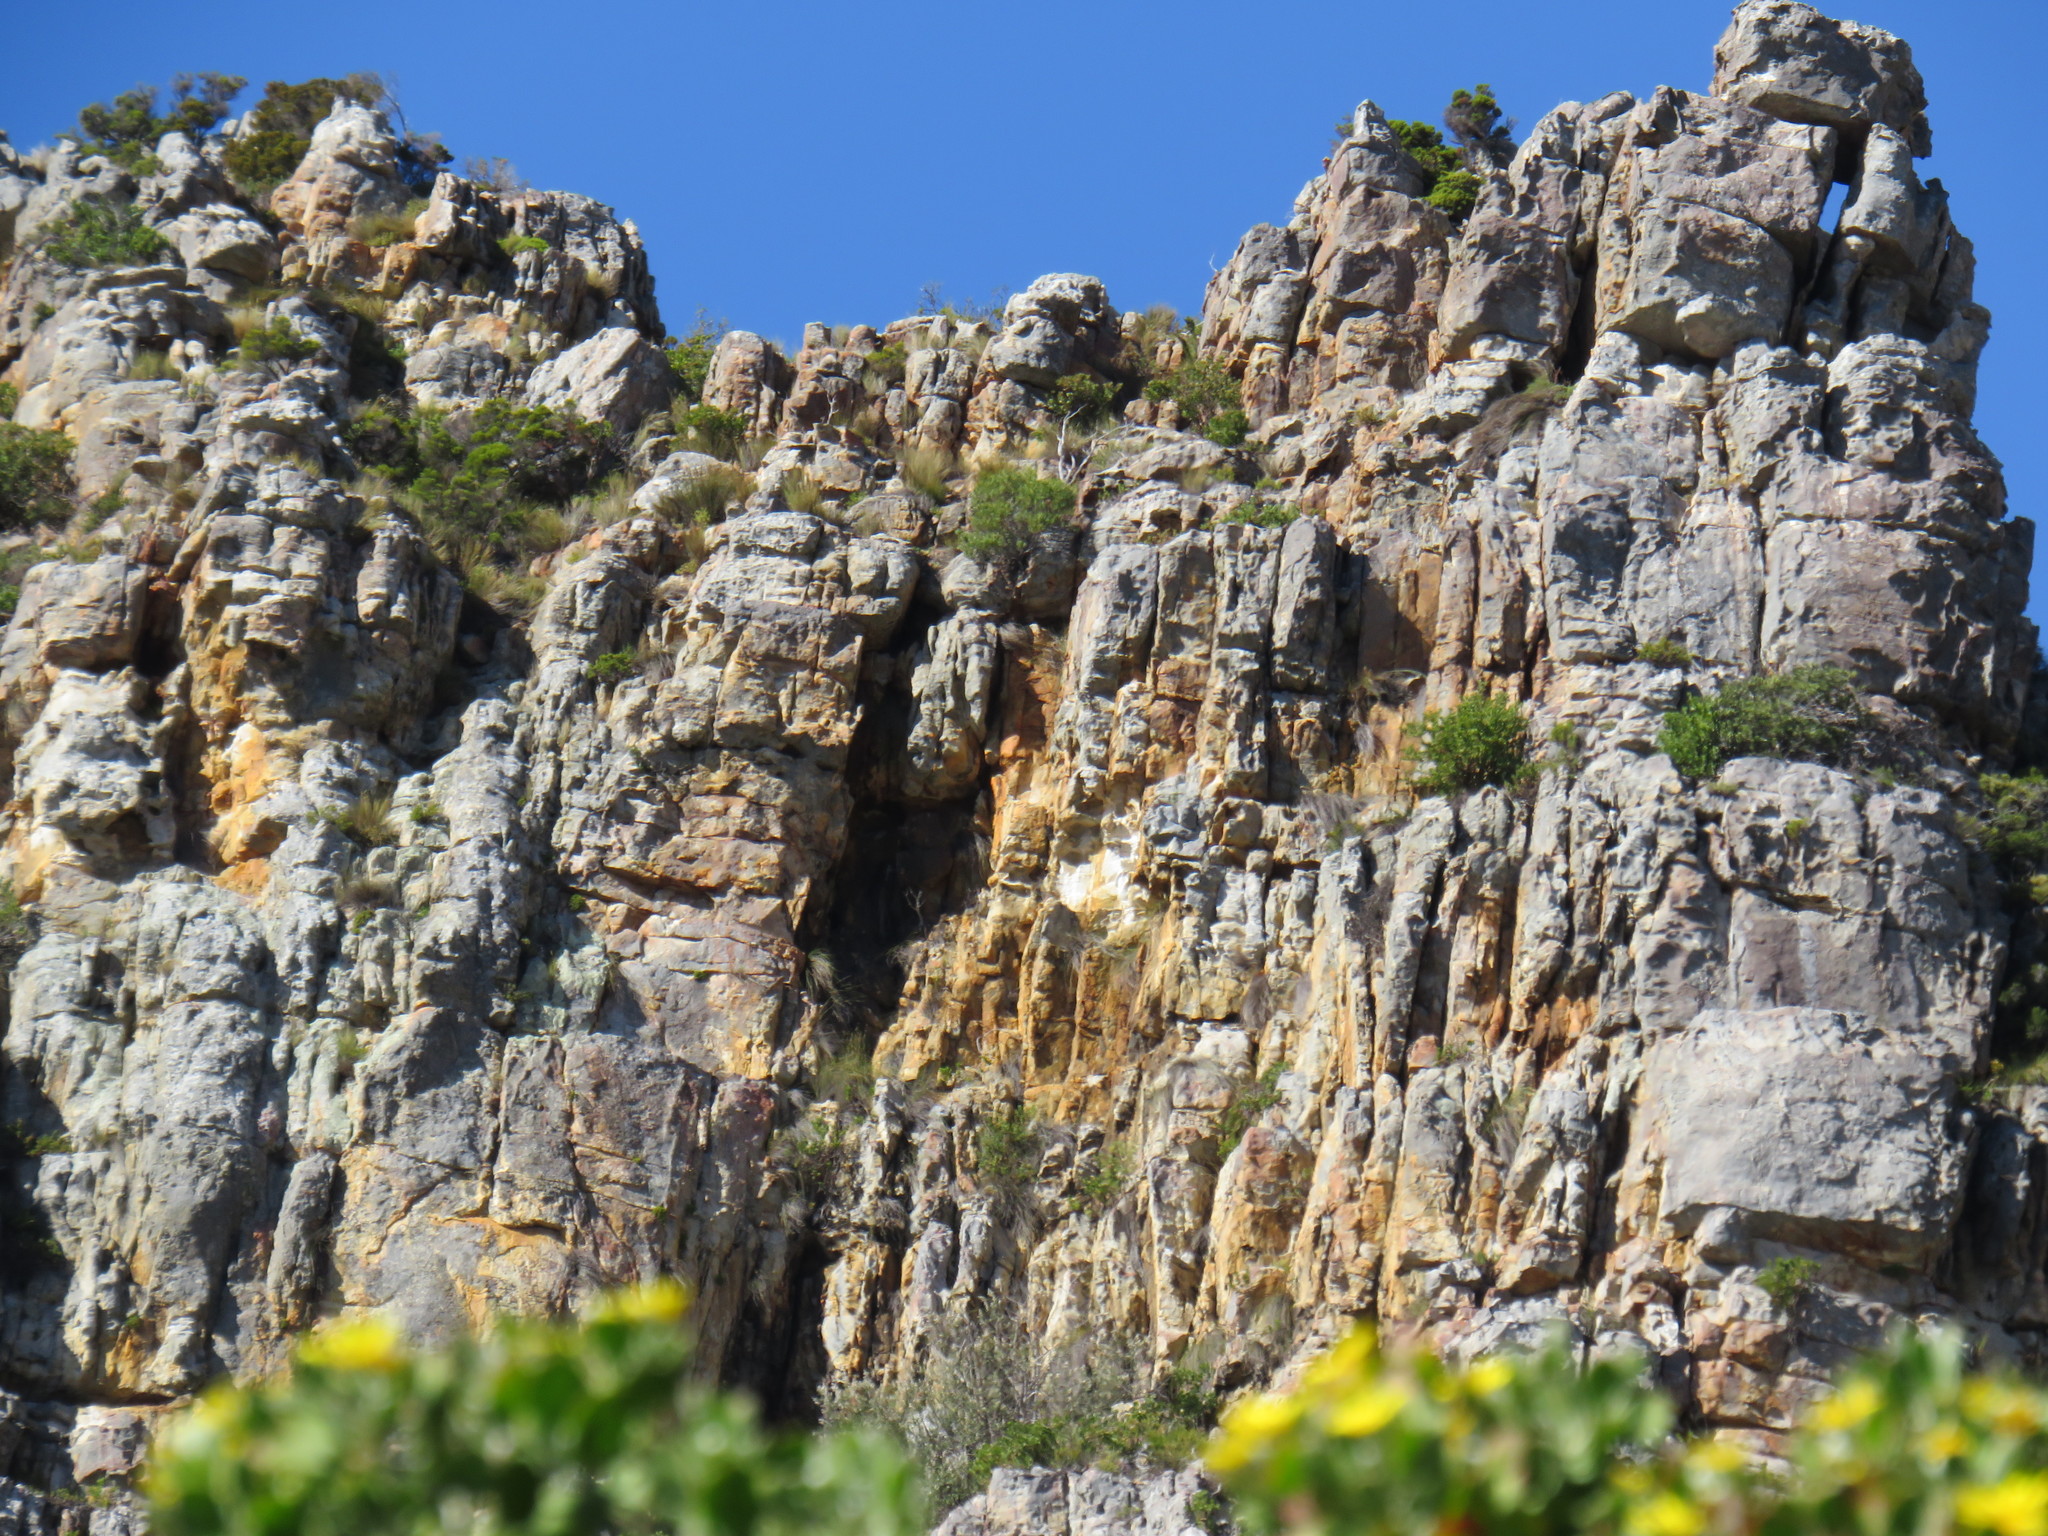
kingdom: Animalia
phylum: Chordata
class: Aves
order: Passeriformes
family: Corvidae
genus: Corvus
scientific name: Corvus albicollis
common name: White-necked raven
